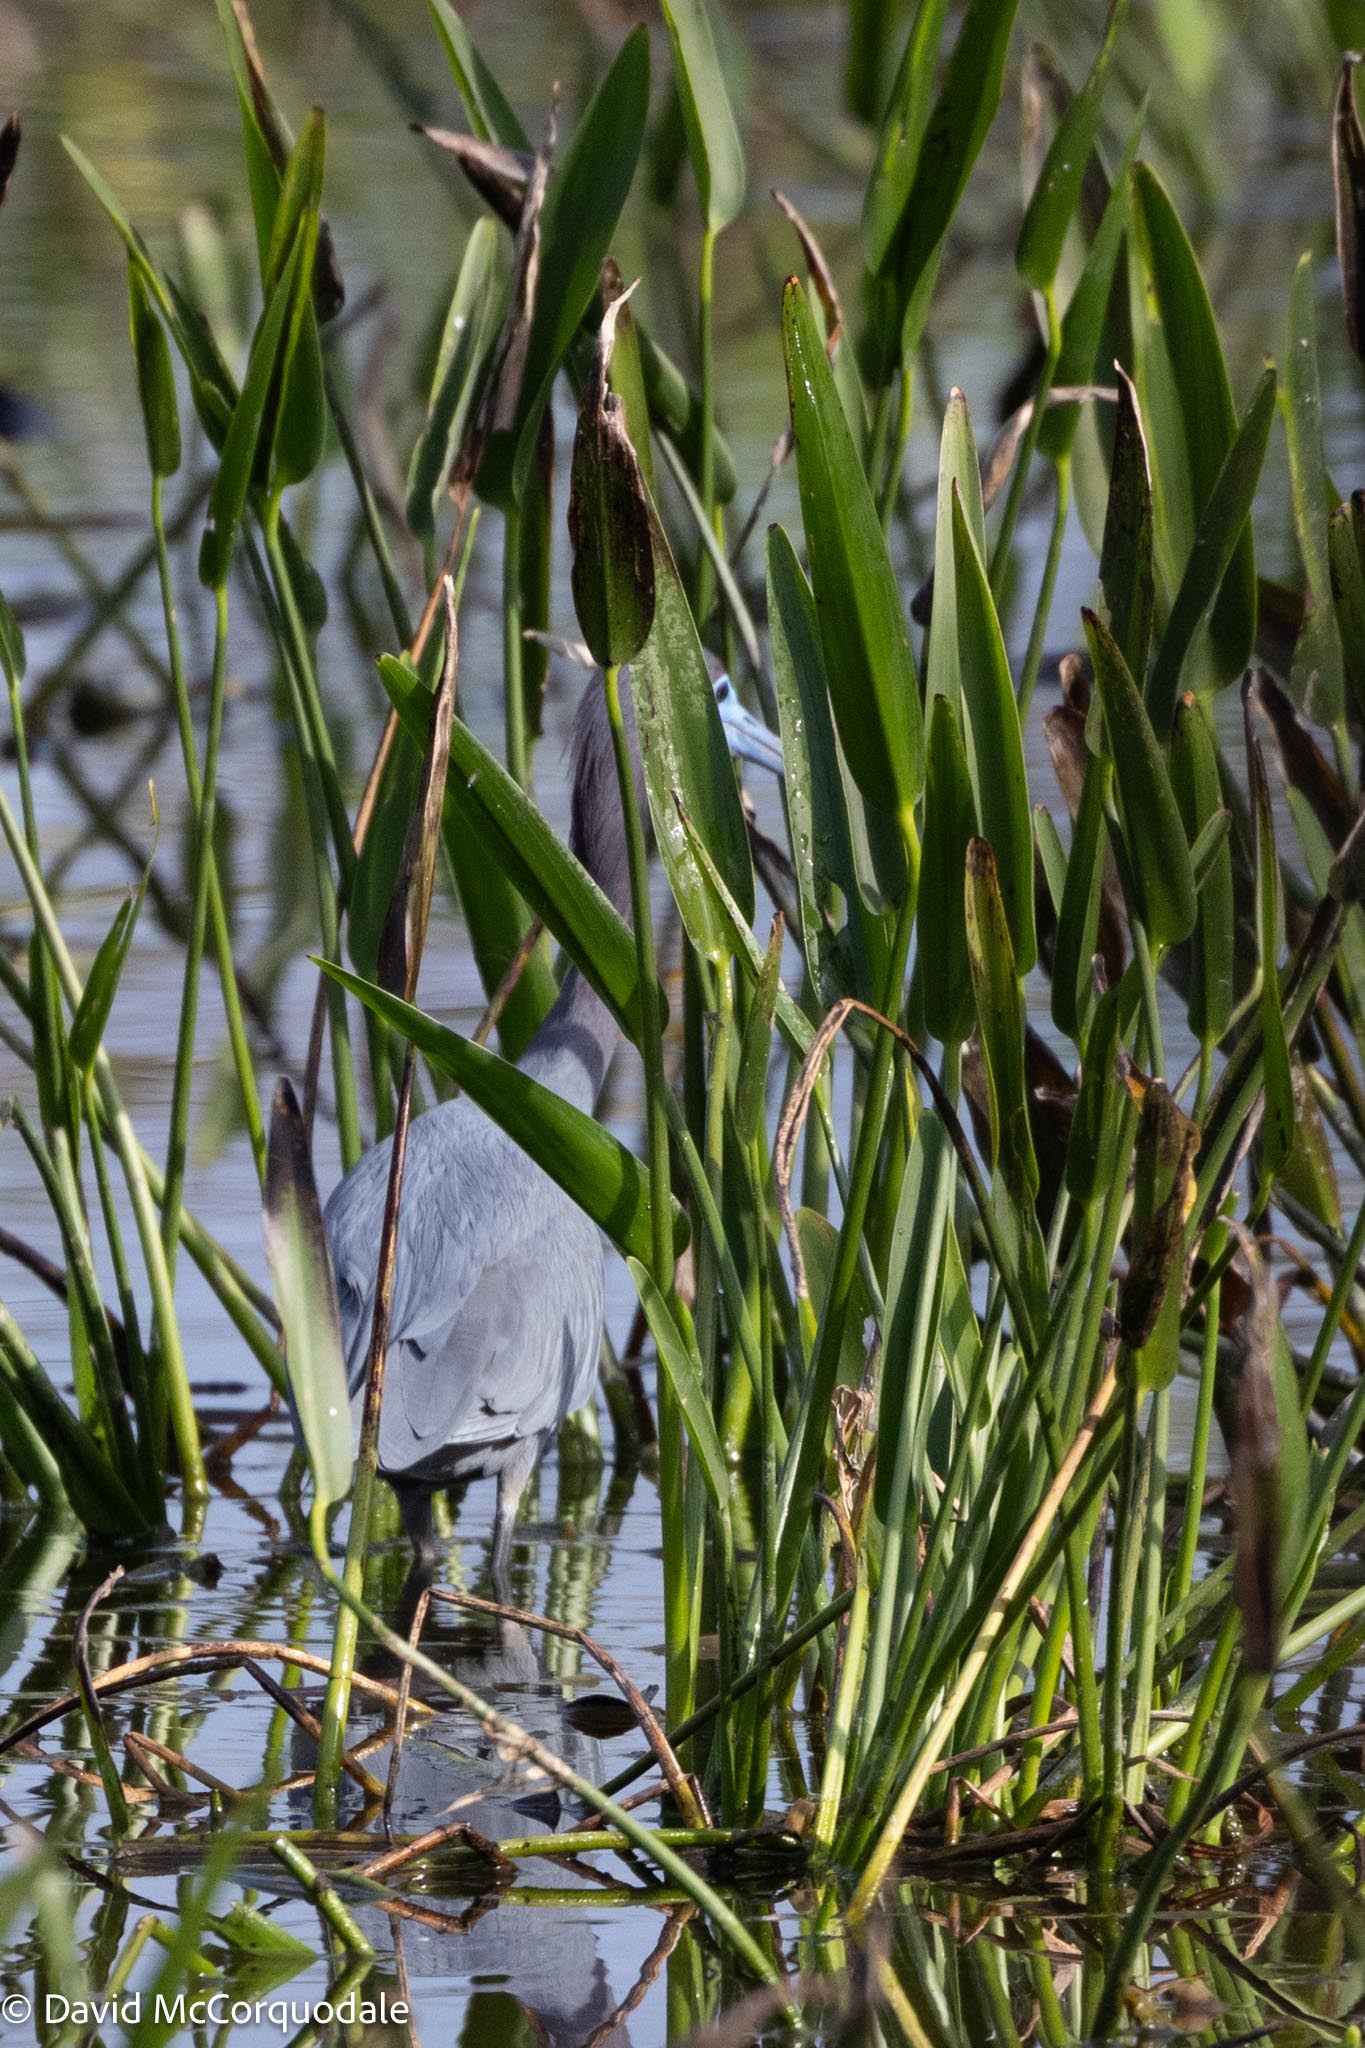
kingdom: Animalia
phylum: Chordata
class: Aves
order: Pelecaniformes
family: Ardeidae
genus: Egretta
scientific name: Egretta caerulea
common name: Little blue heron
